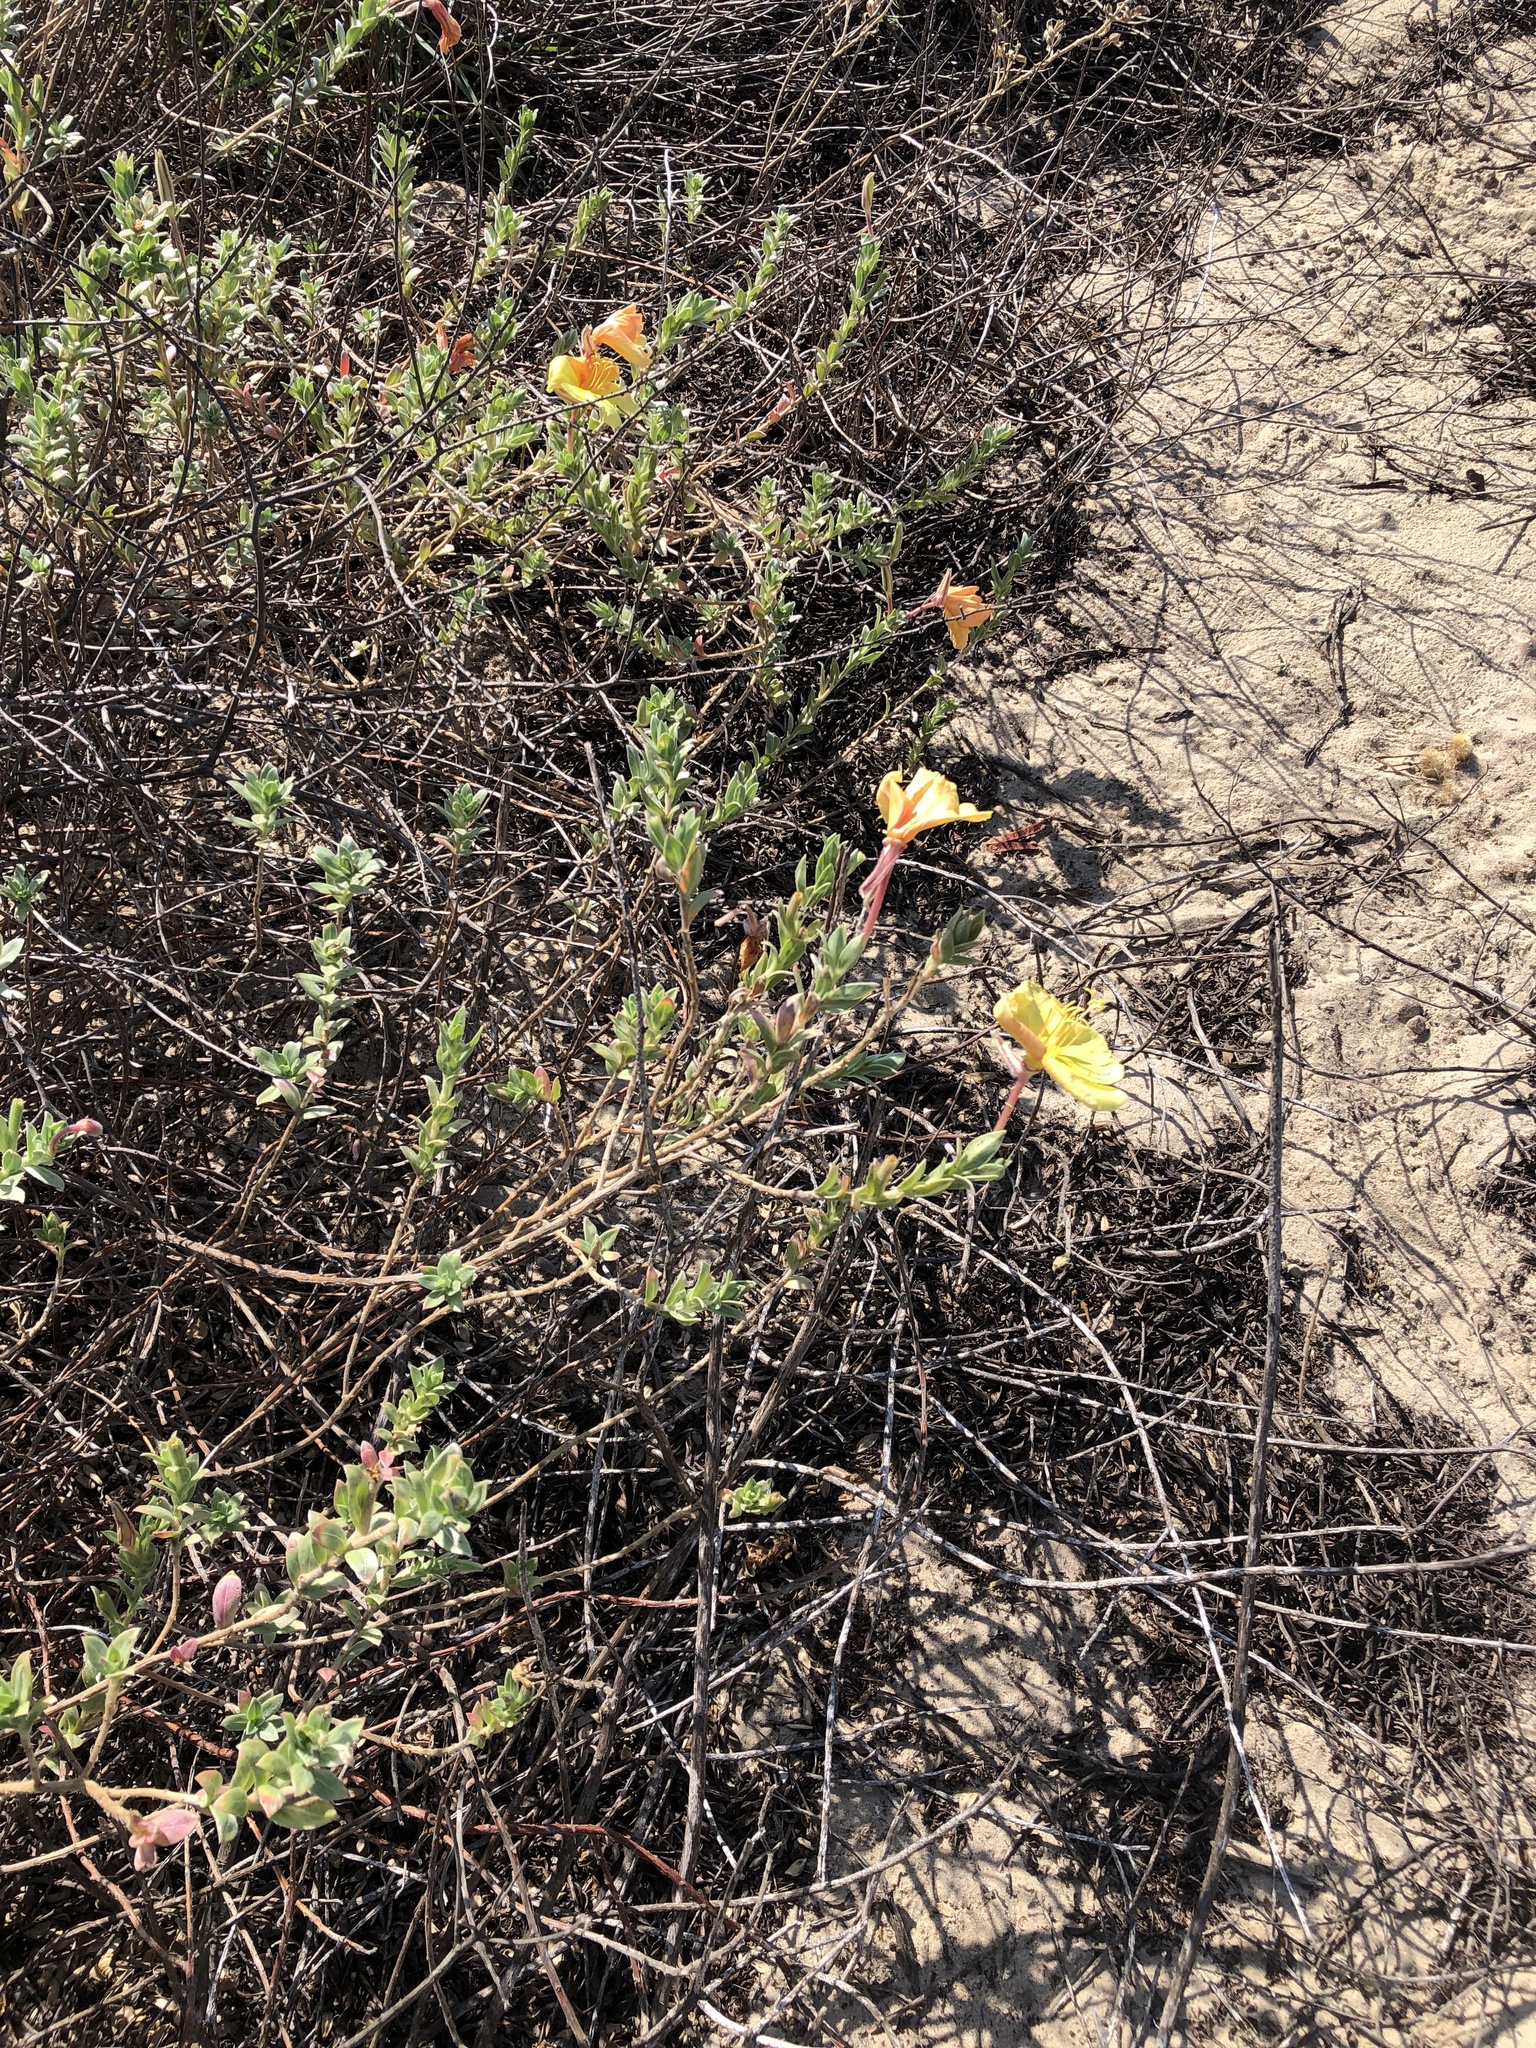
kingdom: Plantae
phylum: Tracheophyta
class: Magnoliopsida
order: Myrtales
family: Onagraceae
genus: Oenothera
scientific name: Oenothera drummondii
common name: Beach evening-primrose
